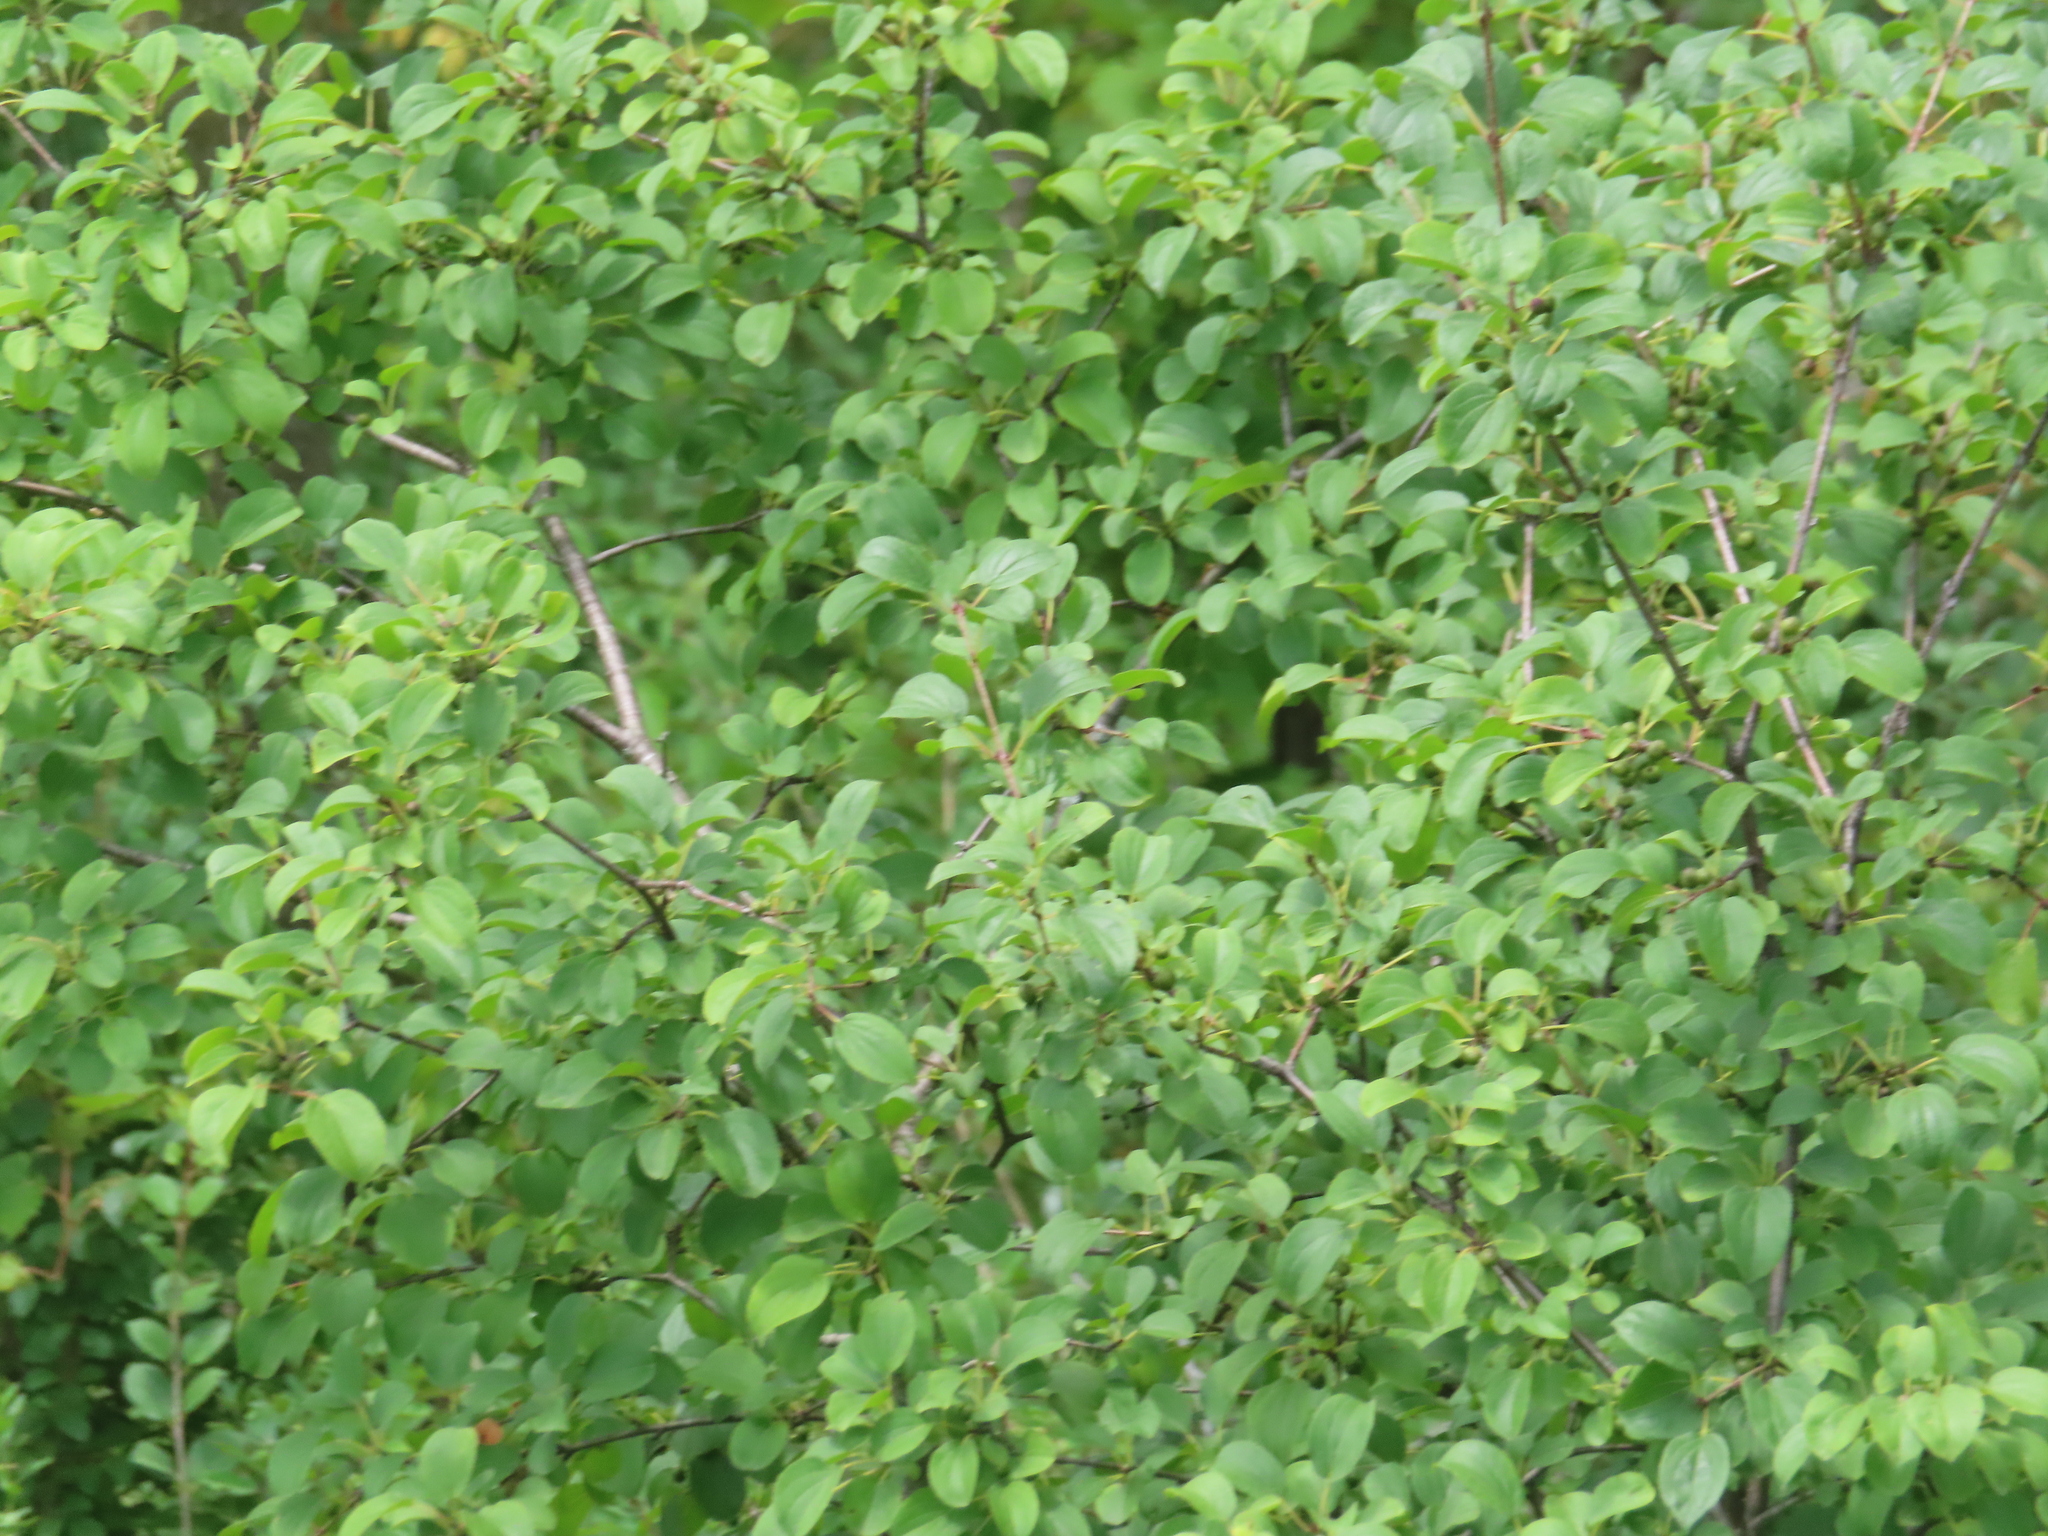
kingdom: Plantae
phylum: Tracheophyta
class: Magnoliopsida
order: Rosales
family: Rhamnaceae
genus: Rhamnus
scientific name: Rhamnus cathartica
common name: Common buckthorn
